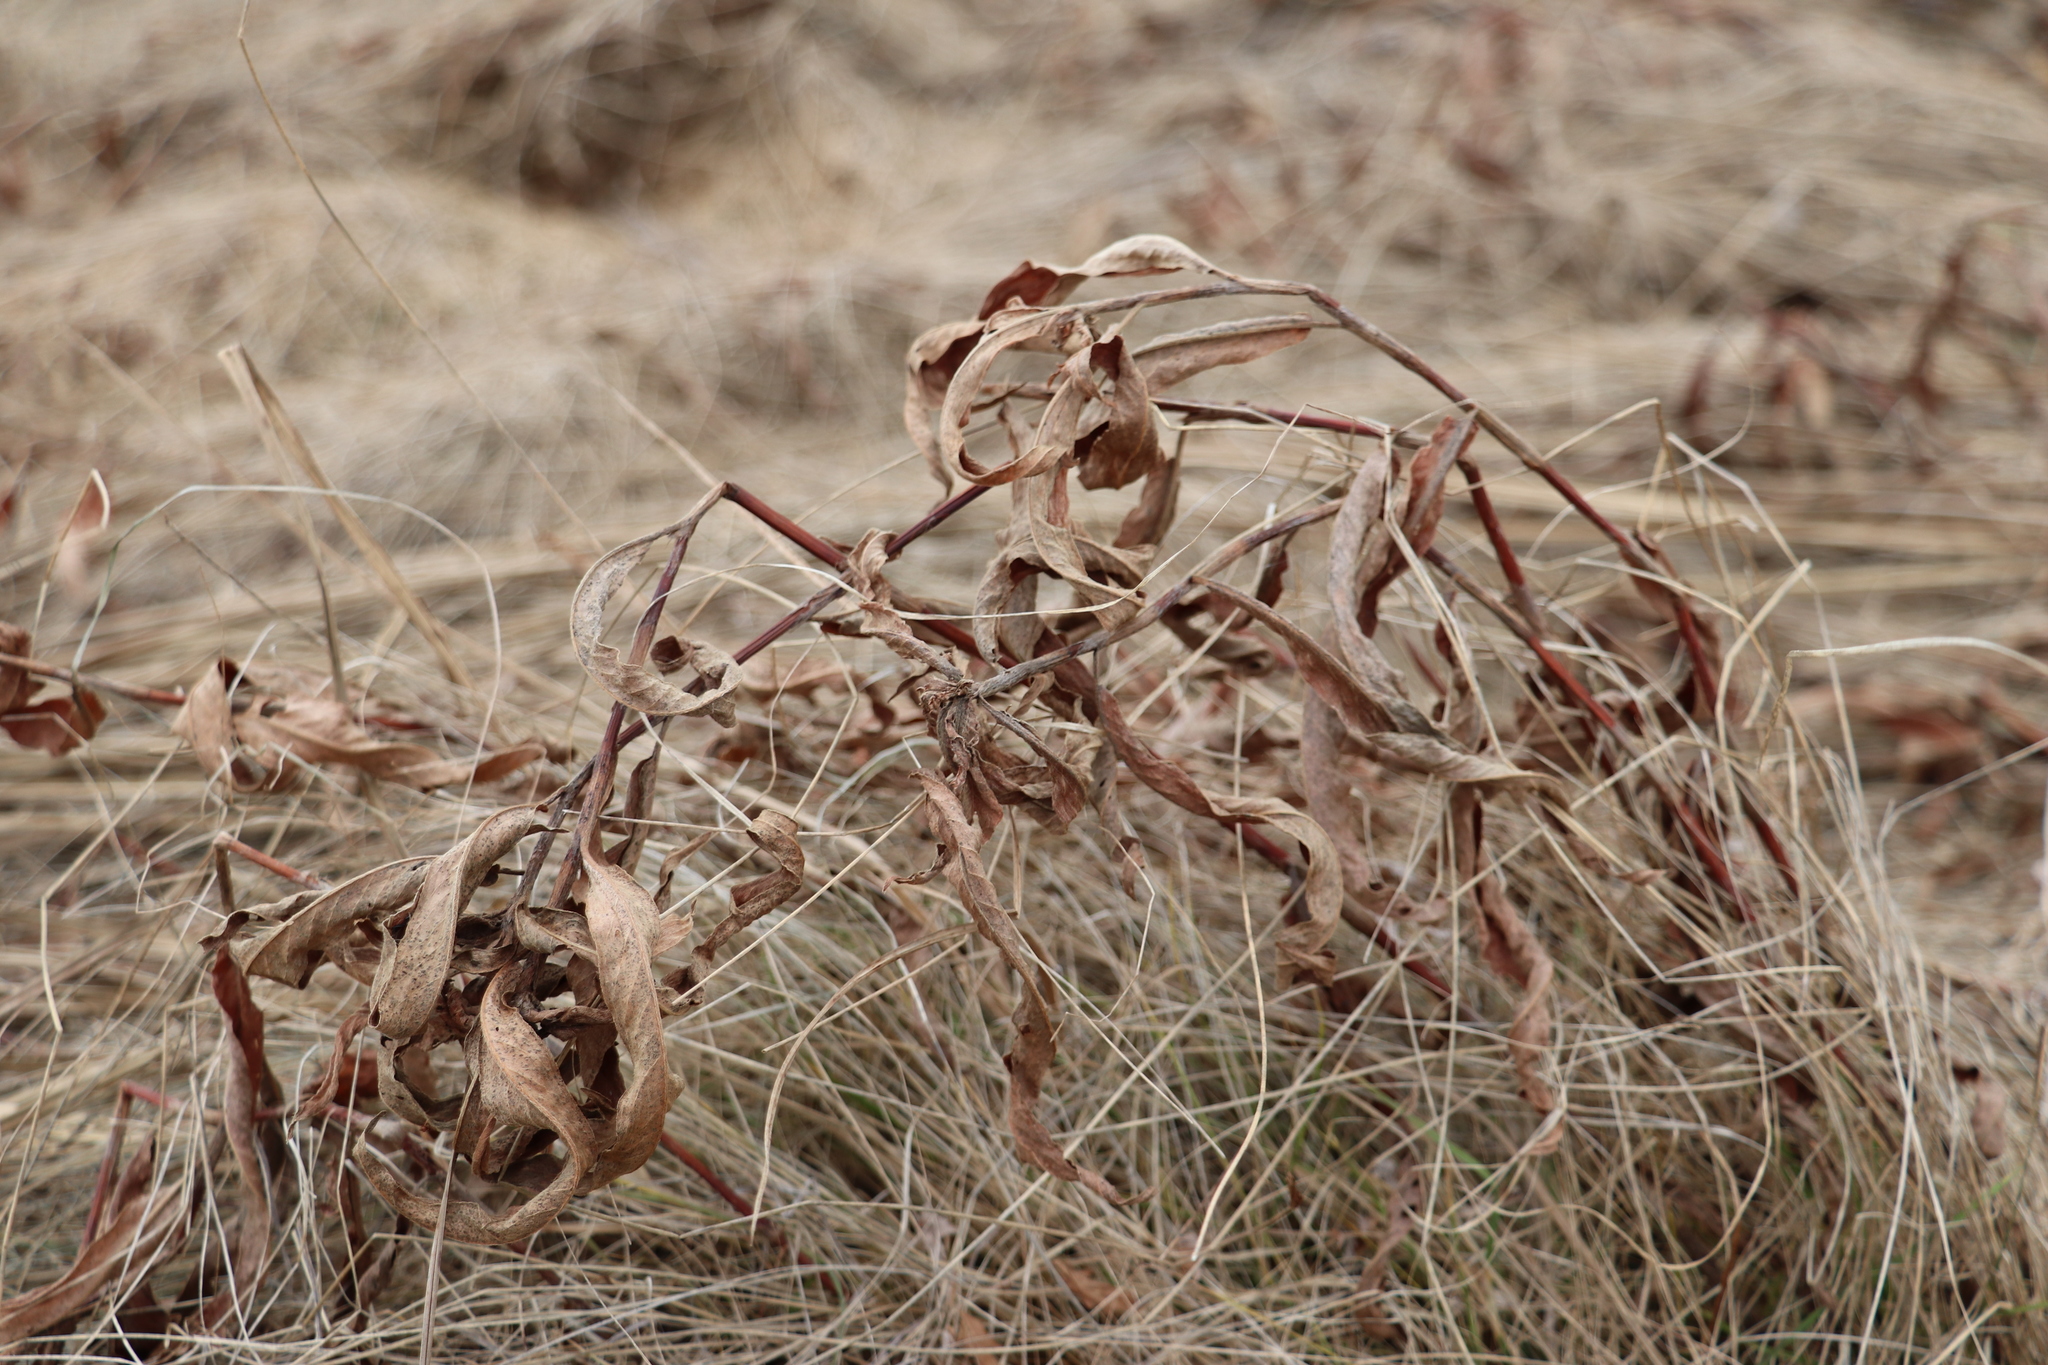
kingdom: Plantae
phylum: Tracheophyta
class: Magnoliopsida
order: Caryophyllales
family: Polygonaceae
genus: Persicaria
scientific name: Persicaria amphibia
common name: Amphibious bistort
